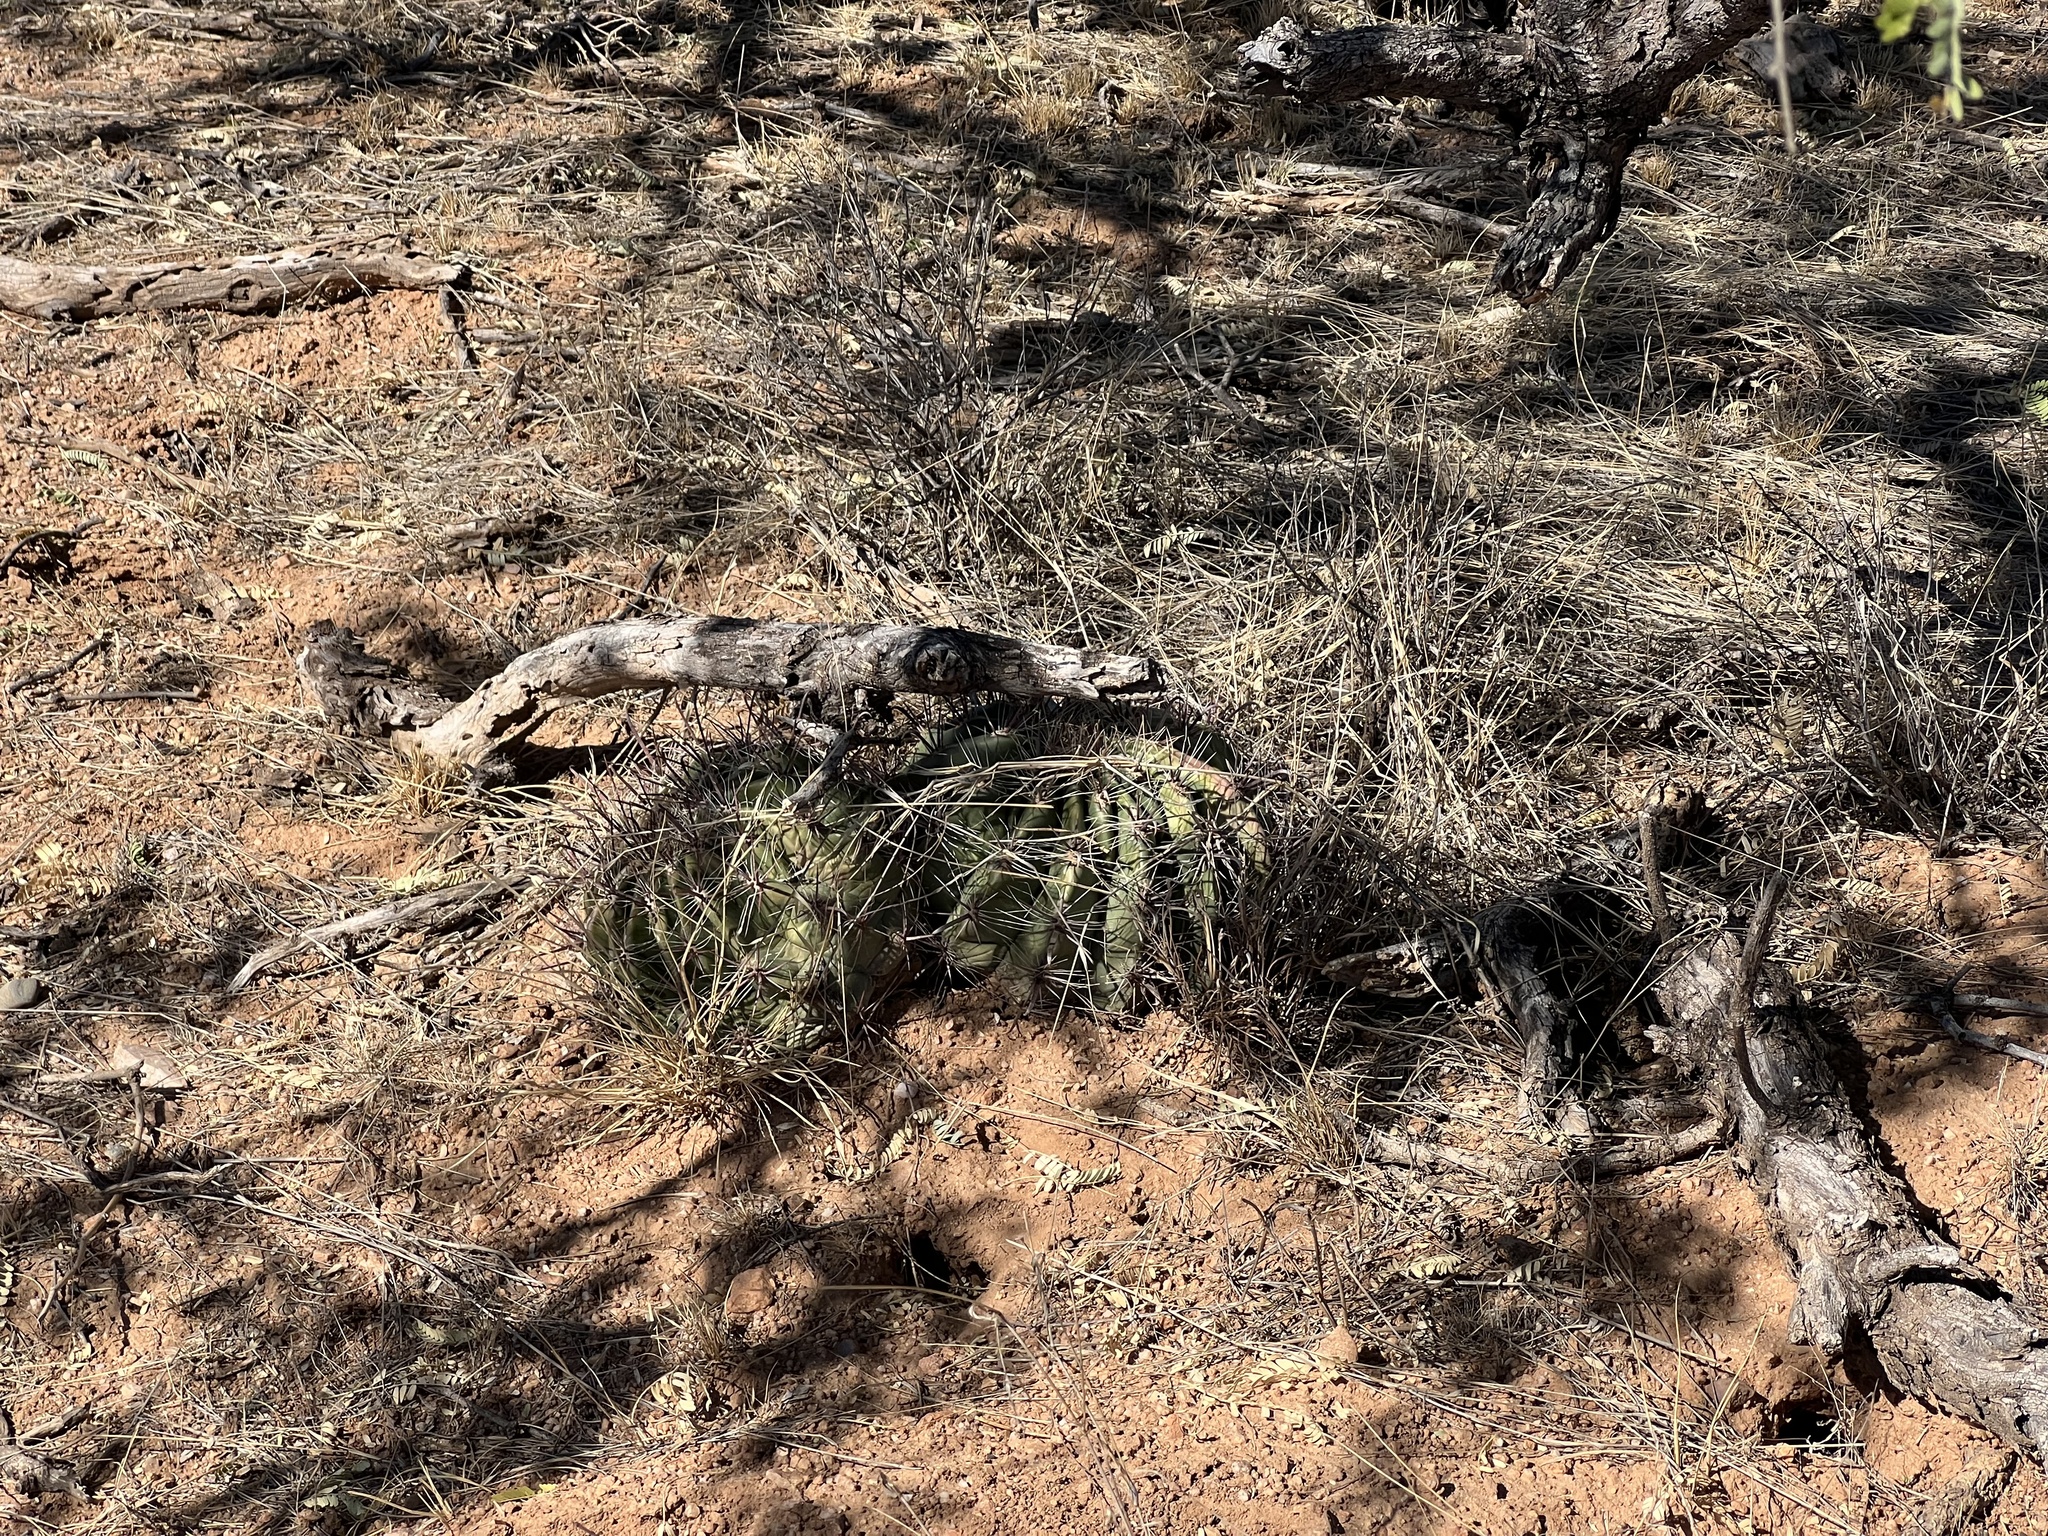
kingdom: Plantae
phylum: Tracheophyta
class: Magnoliopsida
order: Caryophyllales
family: Cactaceae
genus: Ferocactus
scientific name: Ferocactus wislizeni
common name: Candy barrel cactus
